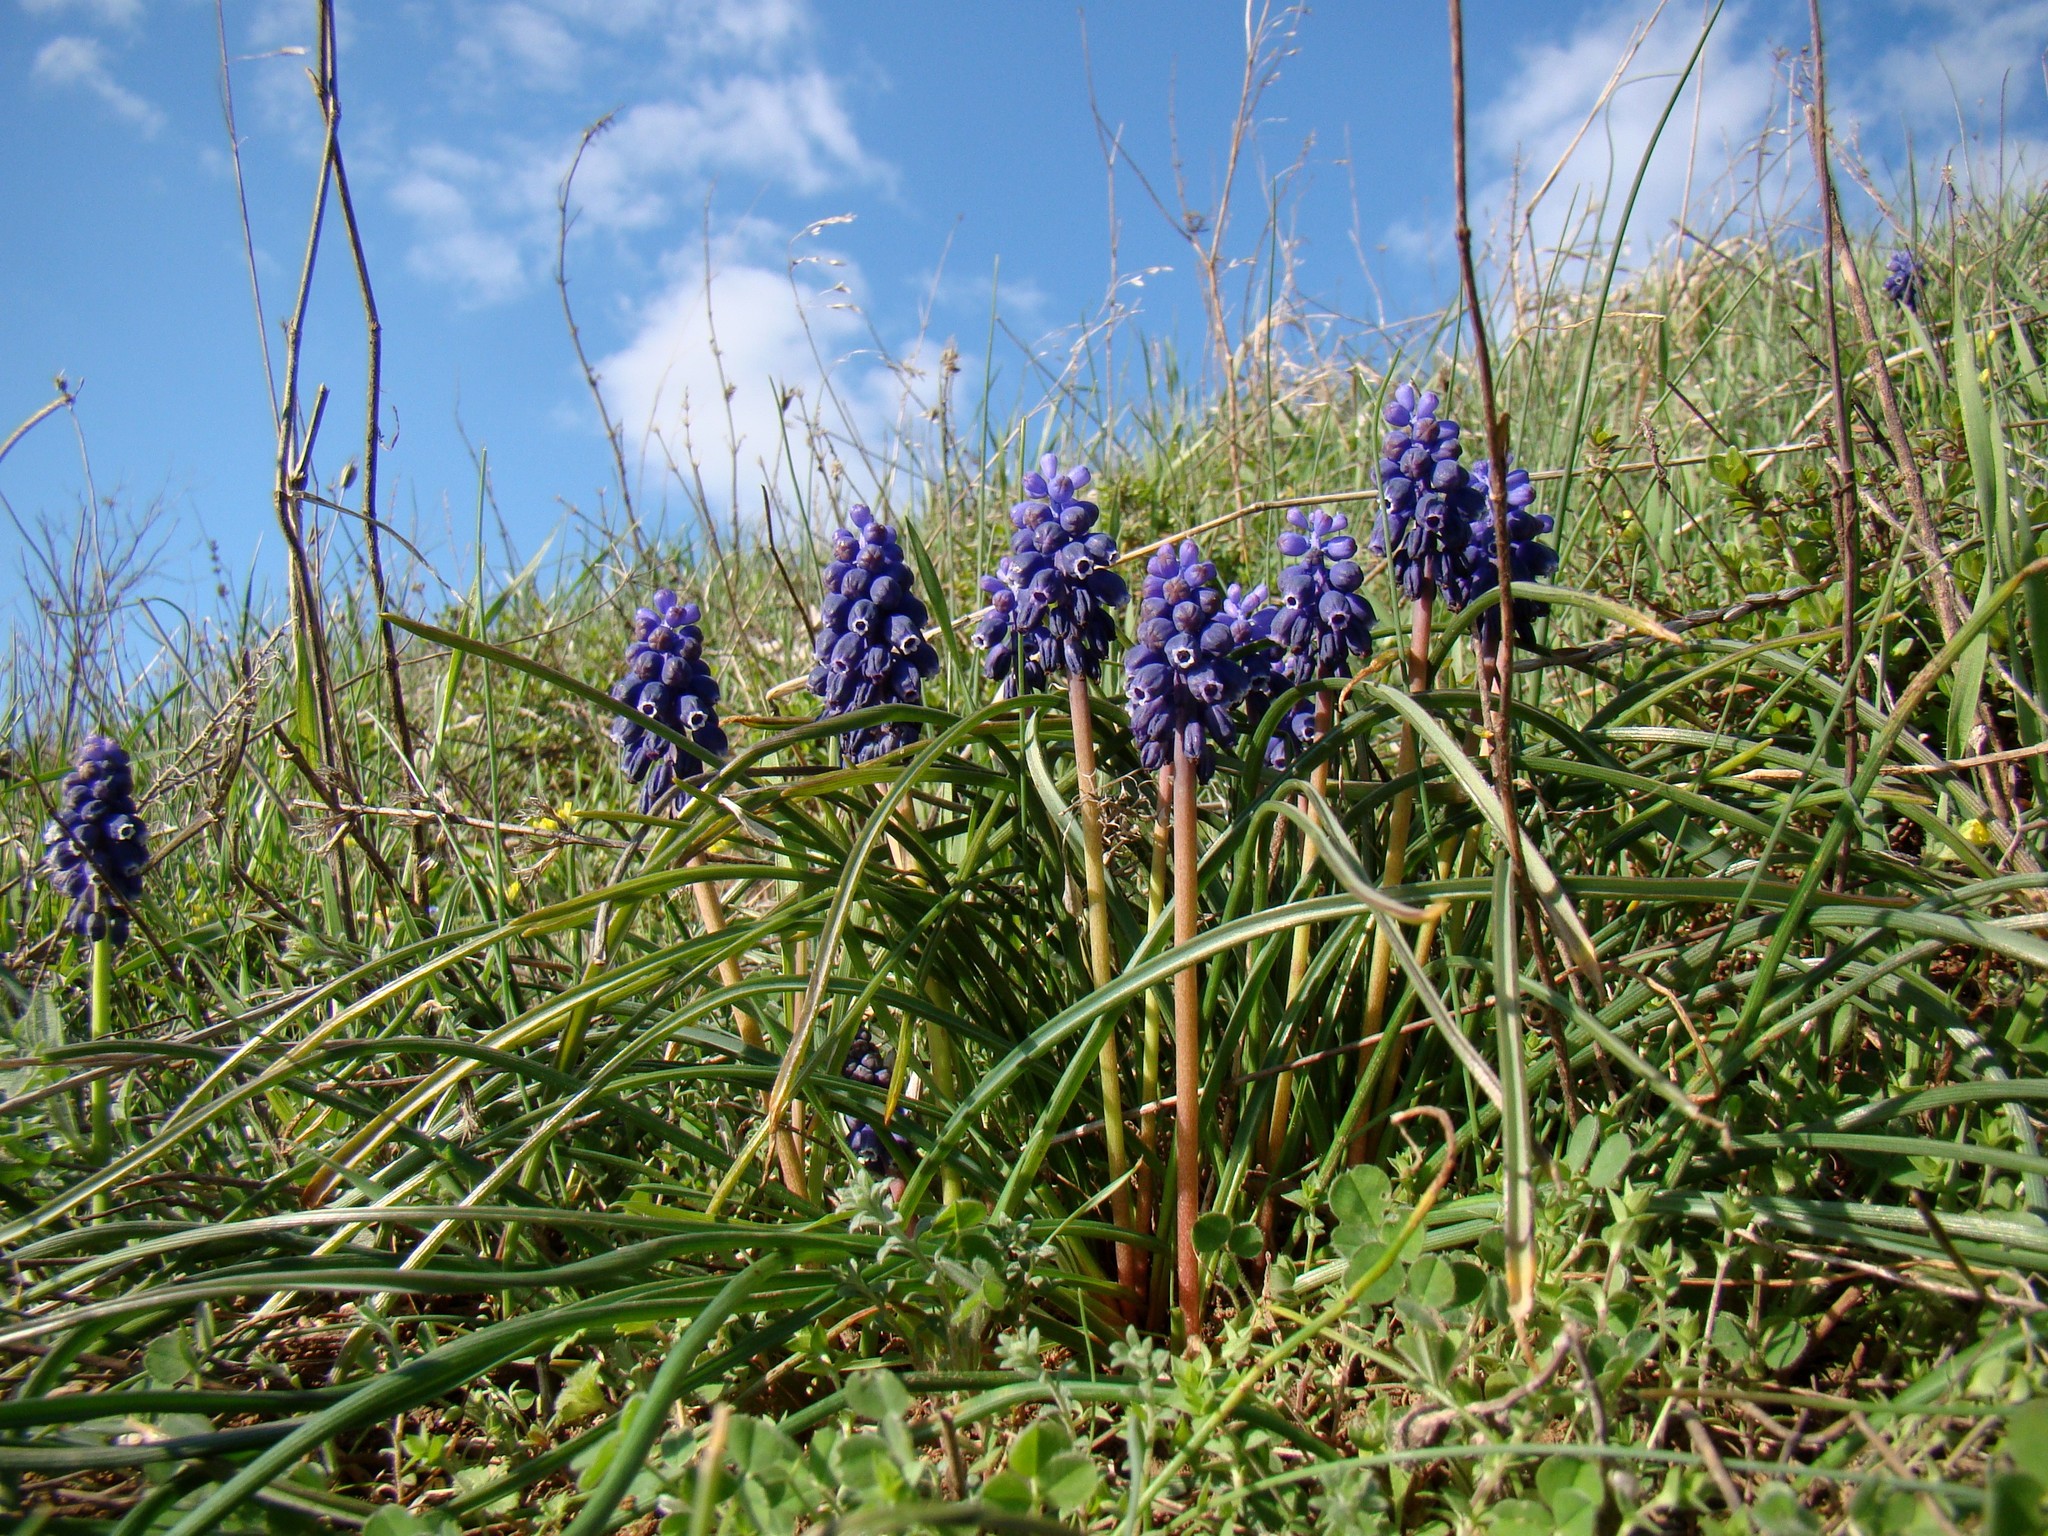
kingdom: Plantae
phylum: Tracheophyta
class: Liliopsida
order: Asparagales
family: Asparagaceae
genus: Muscari
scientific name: Muscari neglectum
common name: Grape-hyacinth
